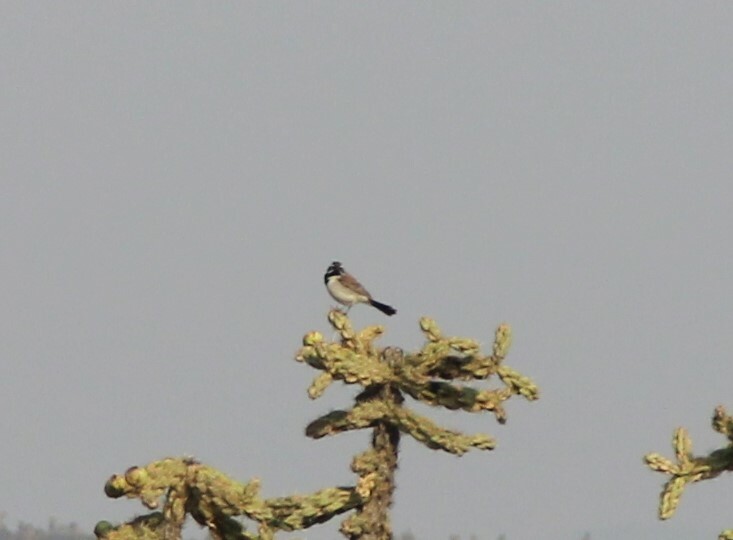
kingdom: Animalia
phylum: Chordata
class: Aves
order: Passeriformes
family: Passerellidae
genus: Amphispiza
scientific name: Amphispiza bilineata
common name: Black-throated sparrow
